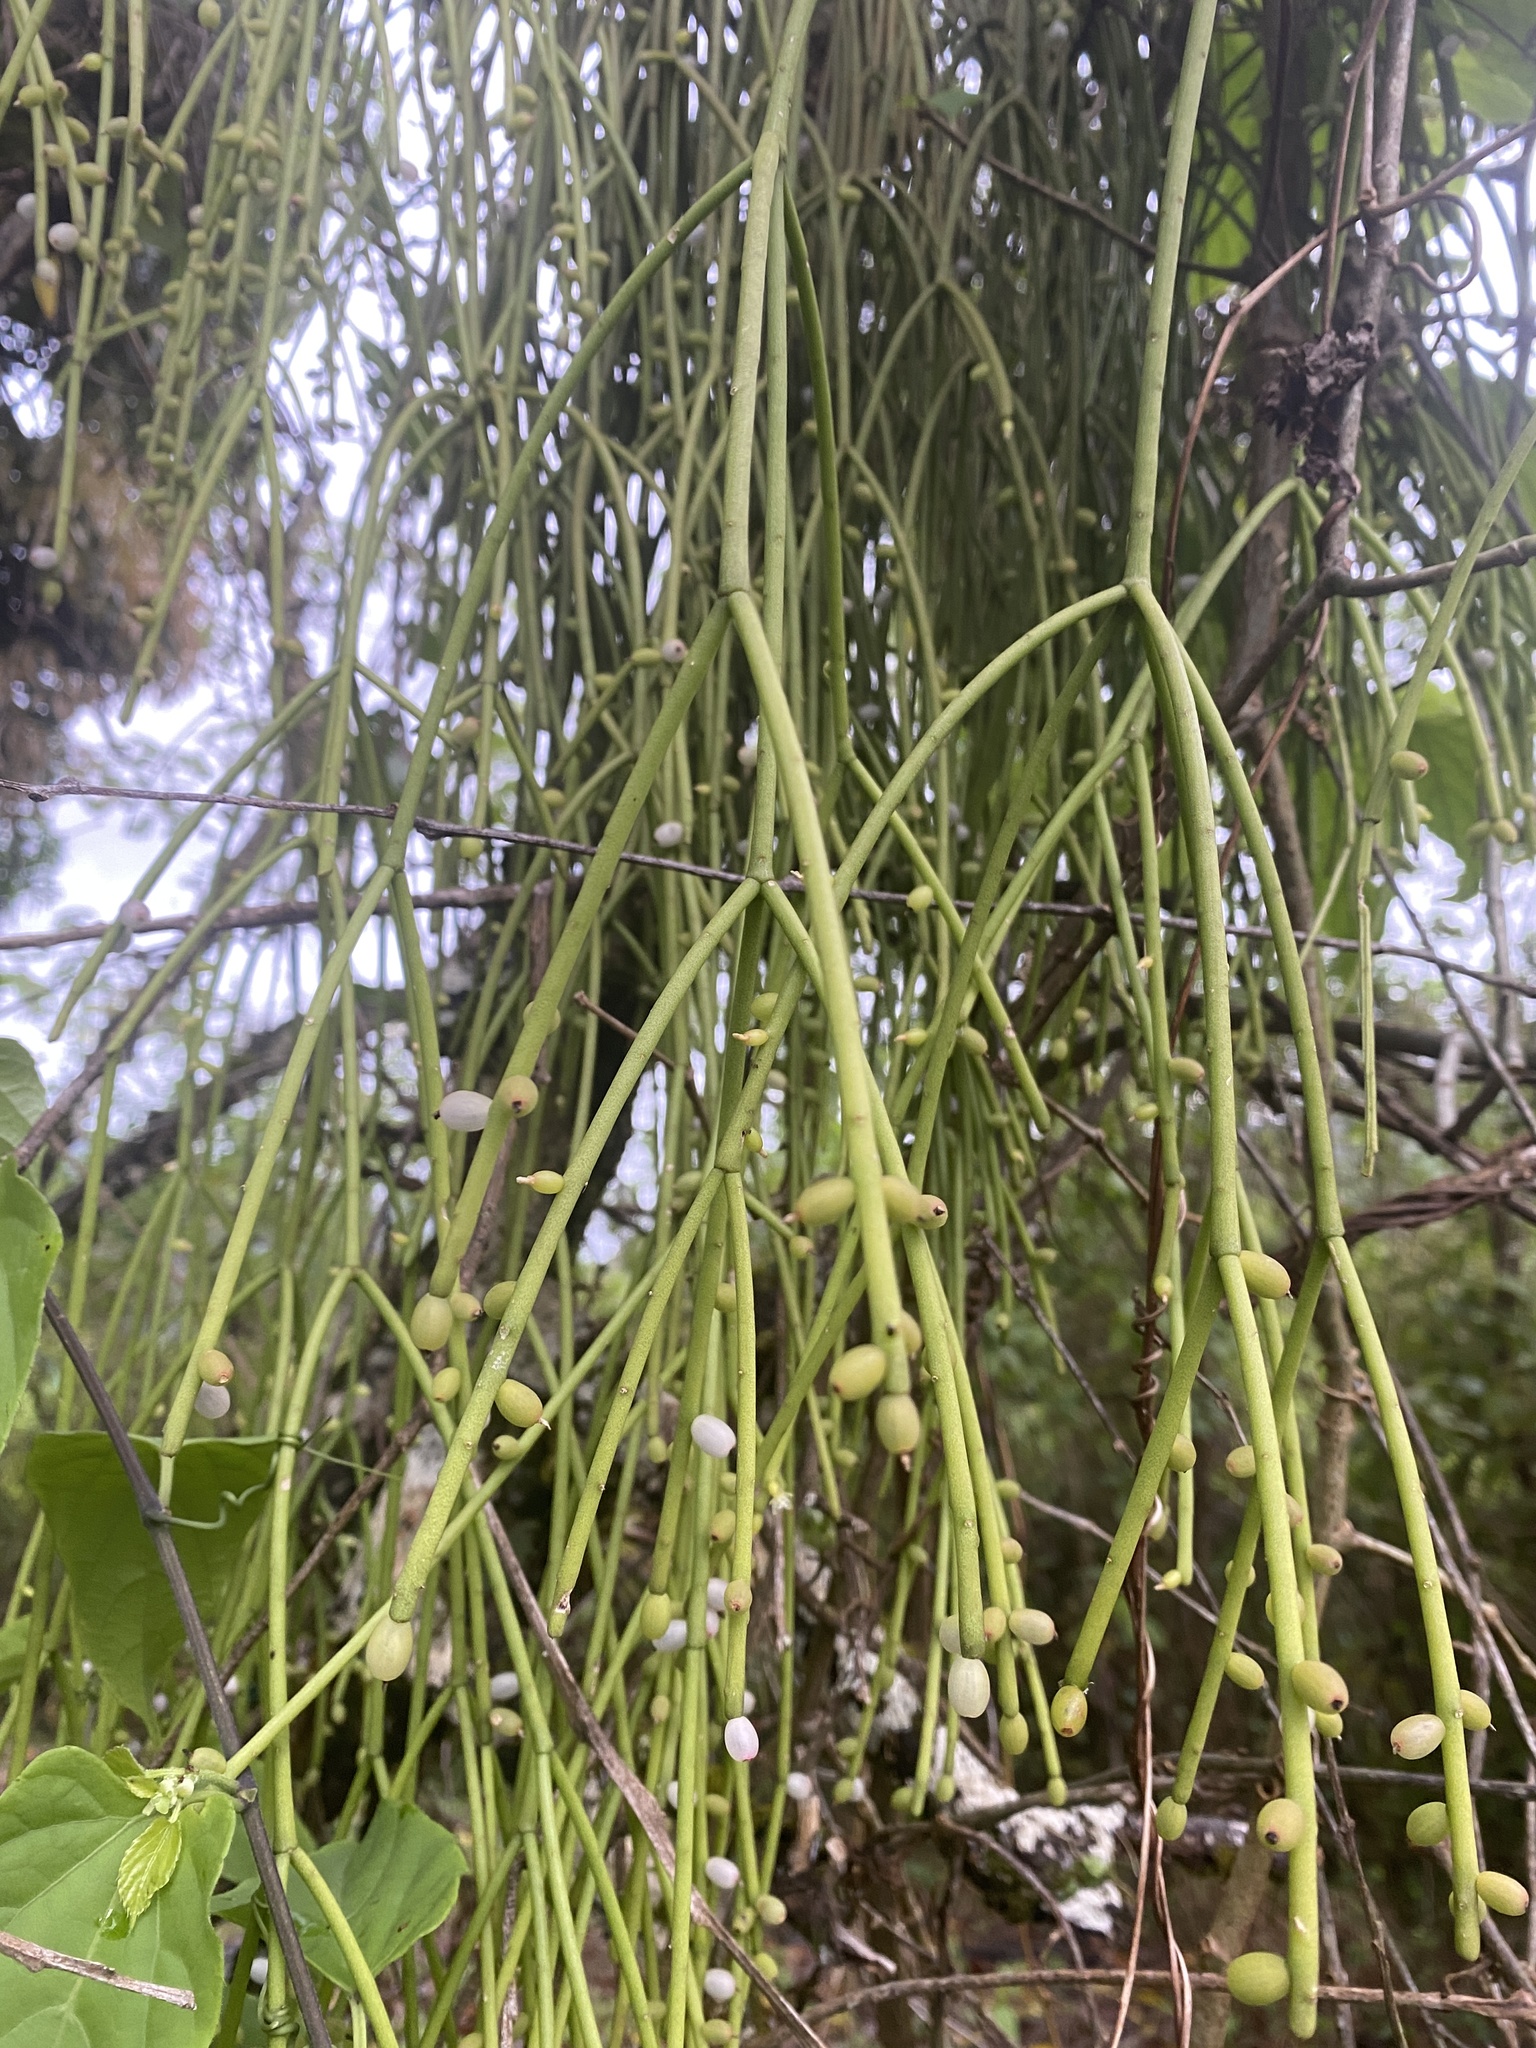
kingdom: Plantae
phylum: Tracheophyta
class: Magnoliopsida
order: Caryophyllales
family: Cactaceae
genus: Rhipsalis
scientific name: Rhipsalis baccifera
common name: Mistletoe cactus
